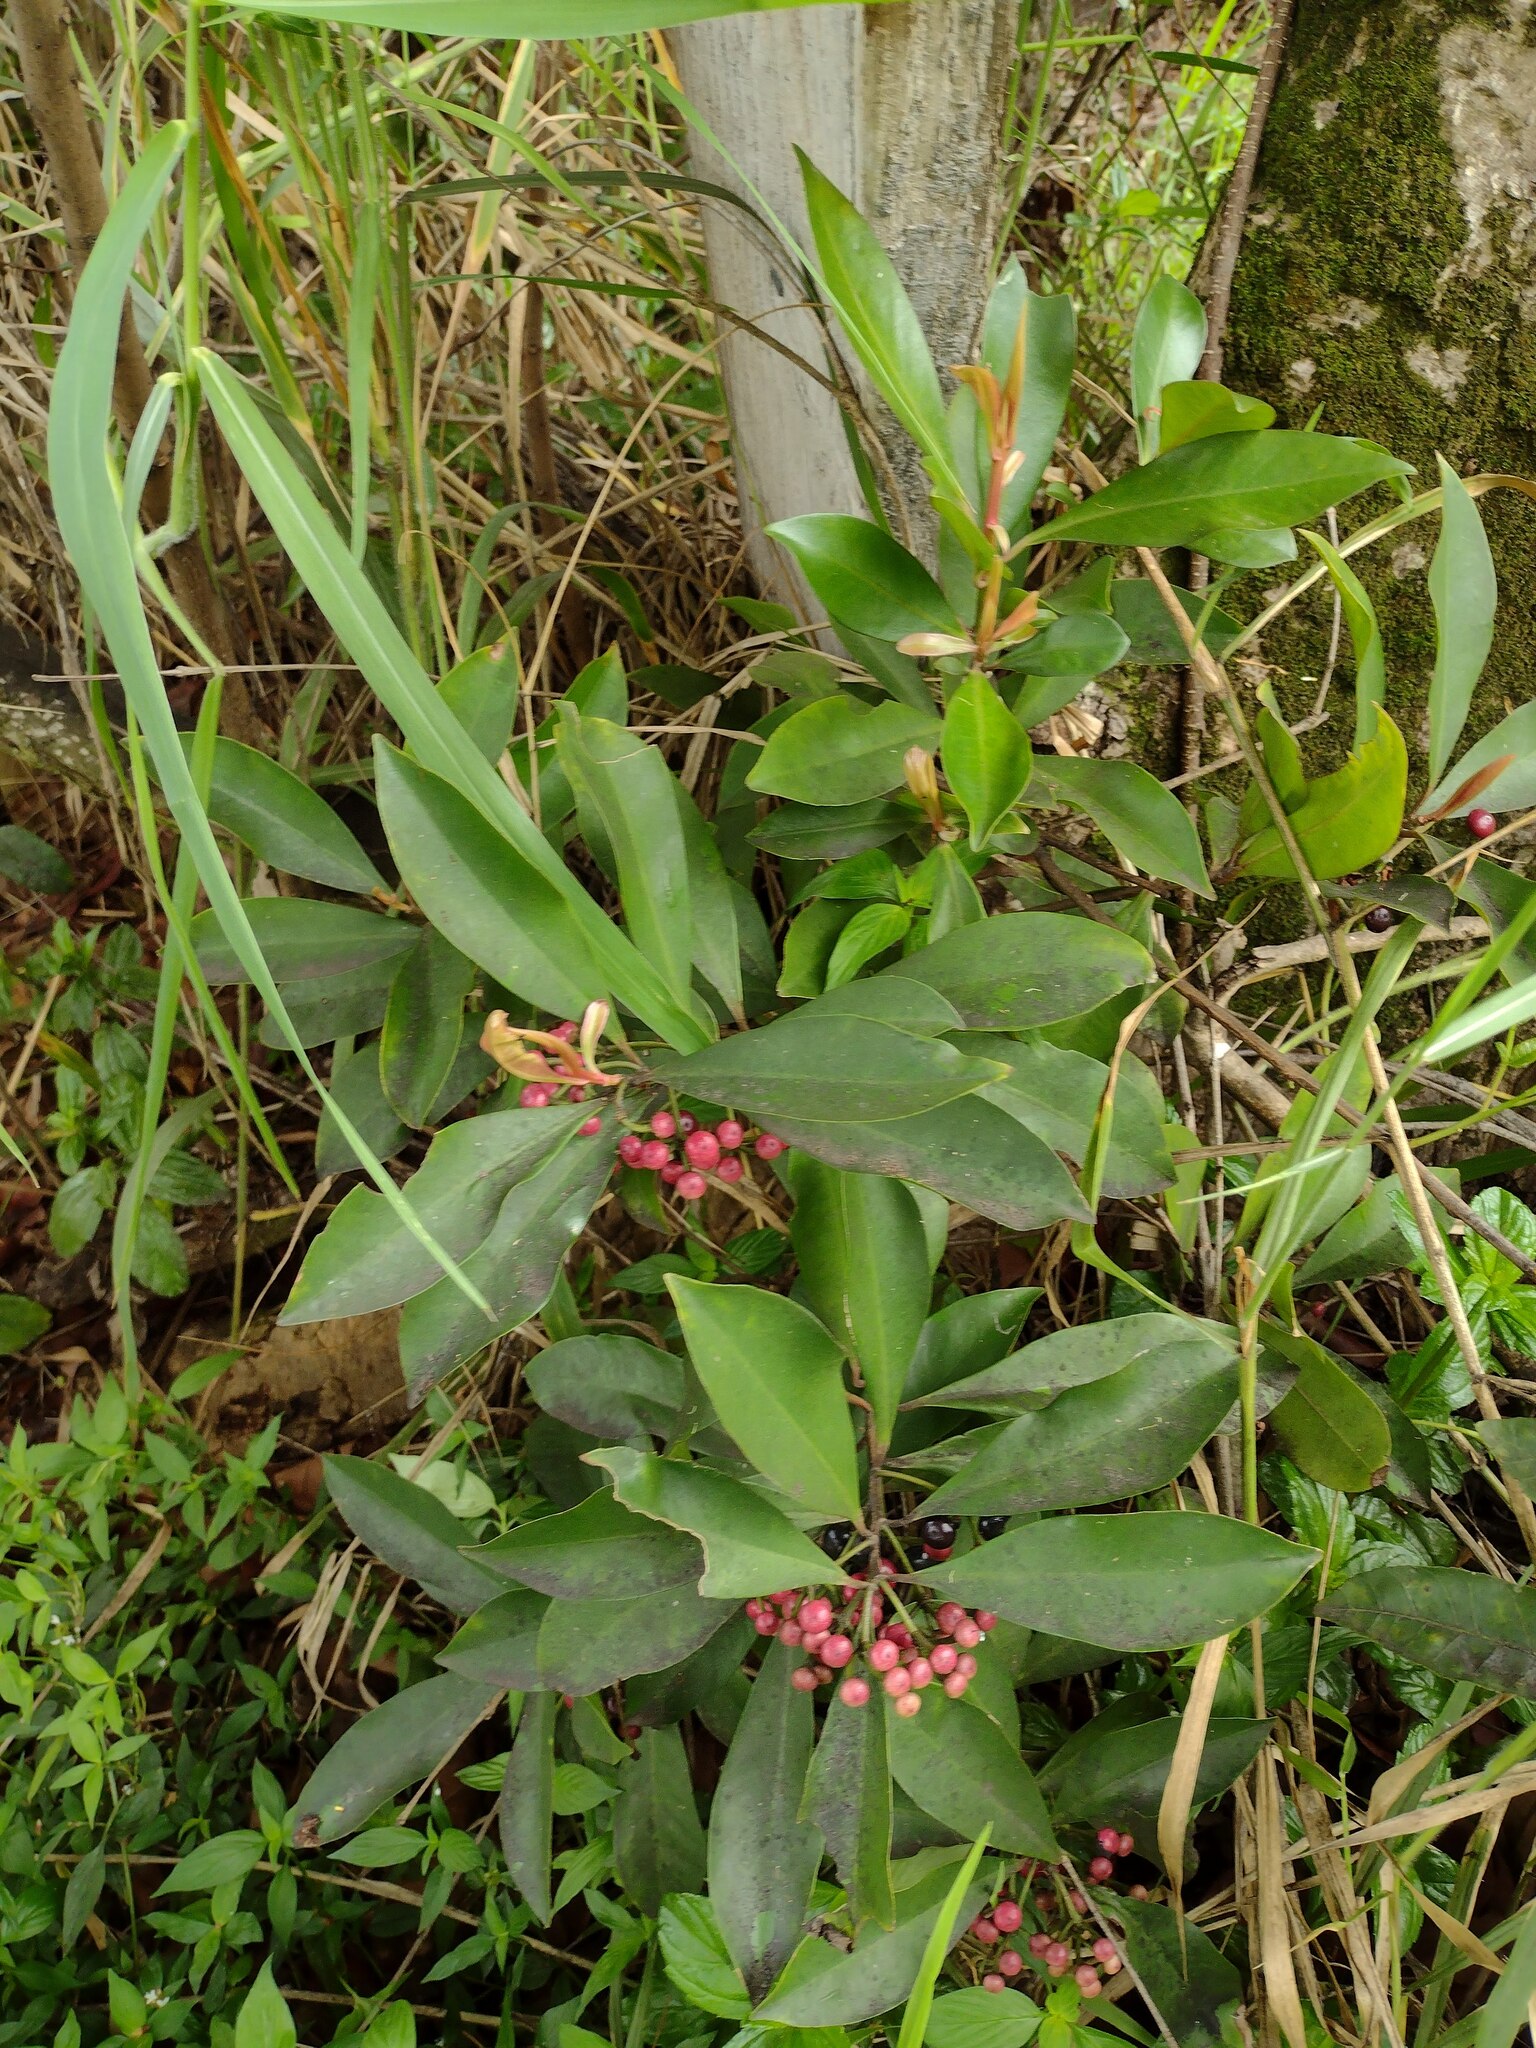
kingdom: Plantae
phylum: Tracheophyta
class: Magnoliopsida
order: Ericales
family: Primulaceae
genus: Ardisia
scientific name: Ardisia elliptica
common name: Shoebutton
